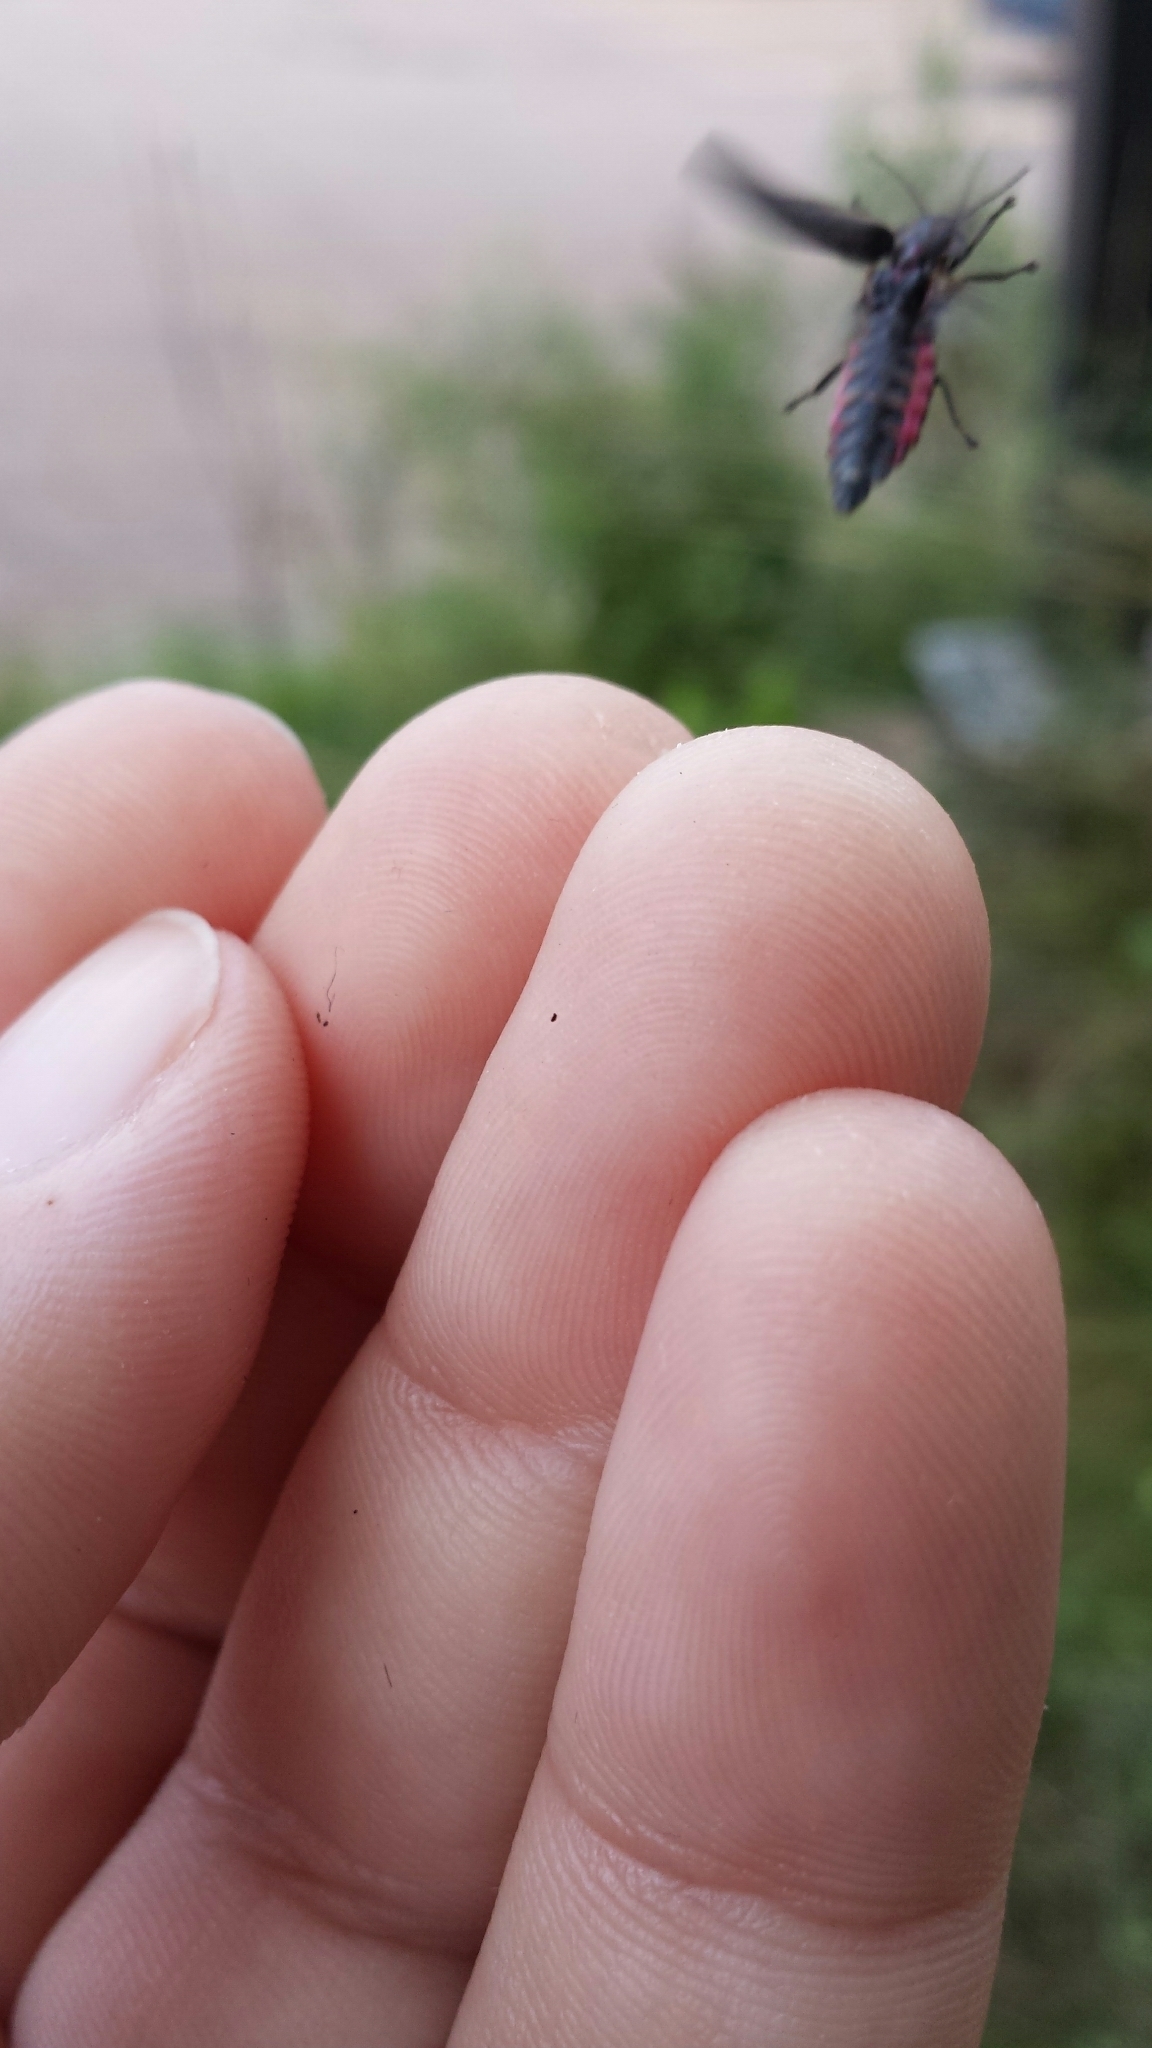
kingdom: Animalia
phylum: Arthropoda
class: Insecta
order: Coleoptera
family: Lampyridae
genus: Photinus
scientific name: Photinus corrusca
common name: Winter firefly
